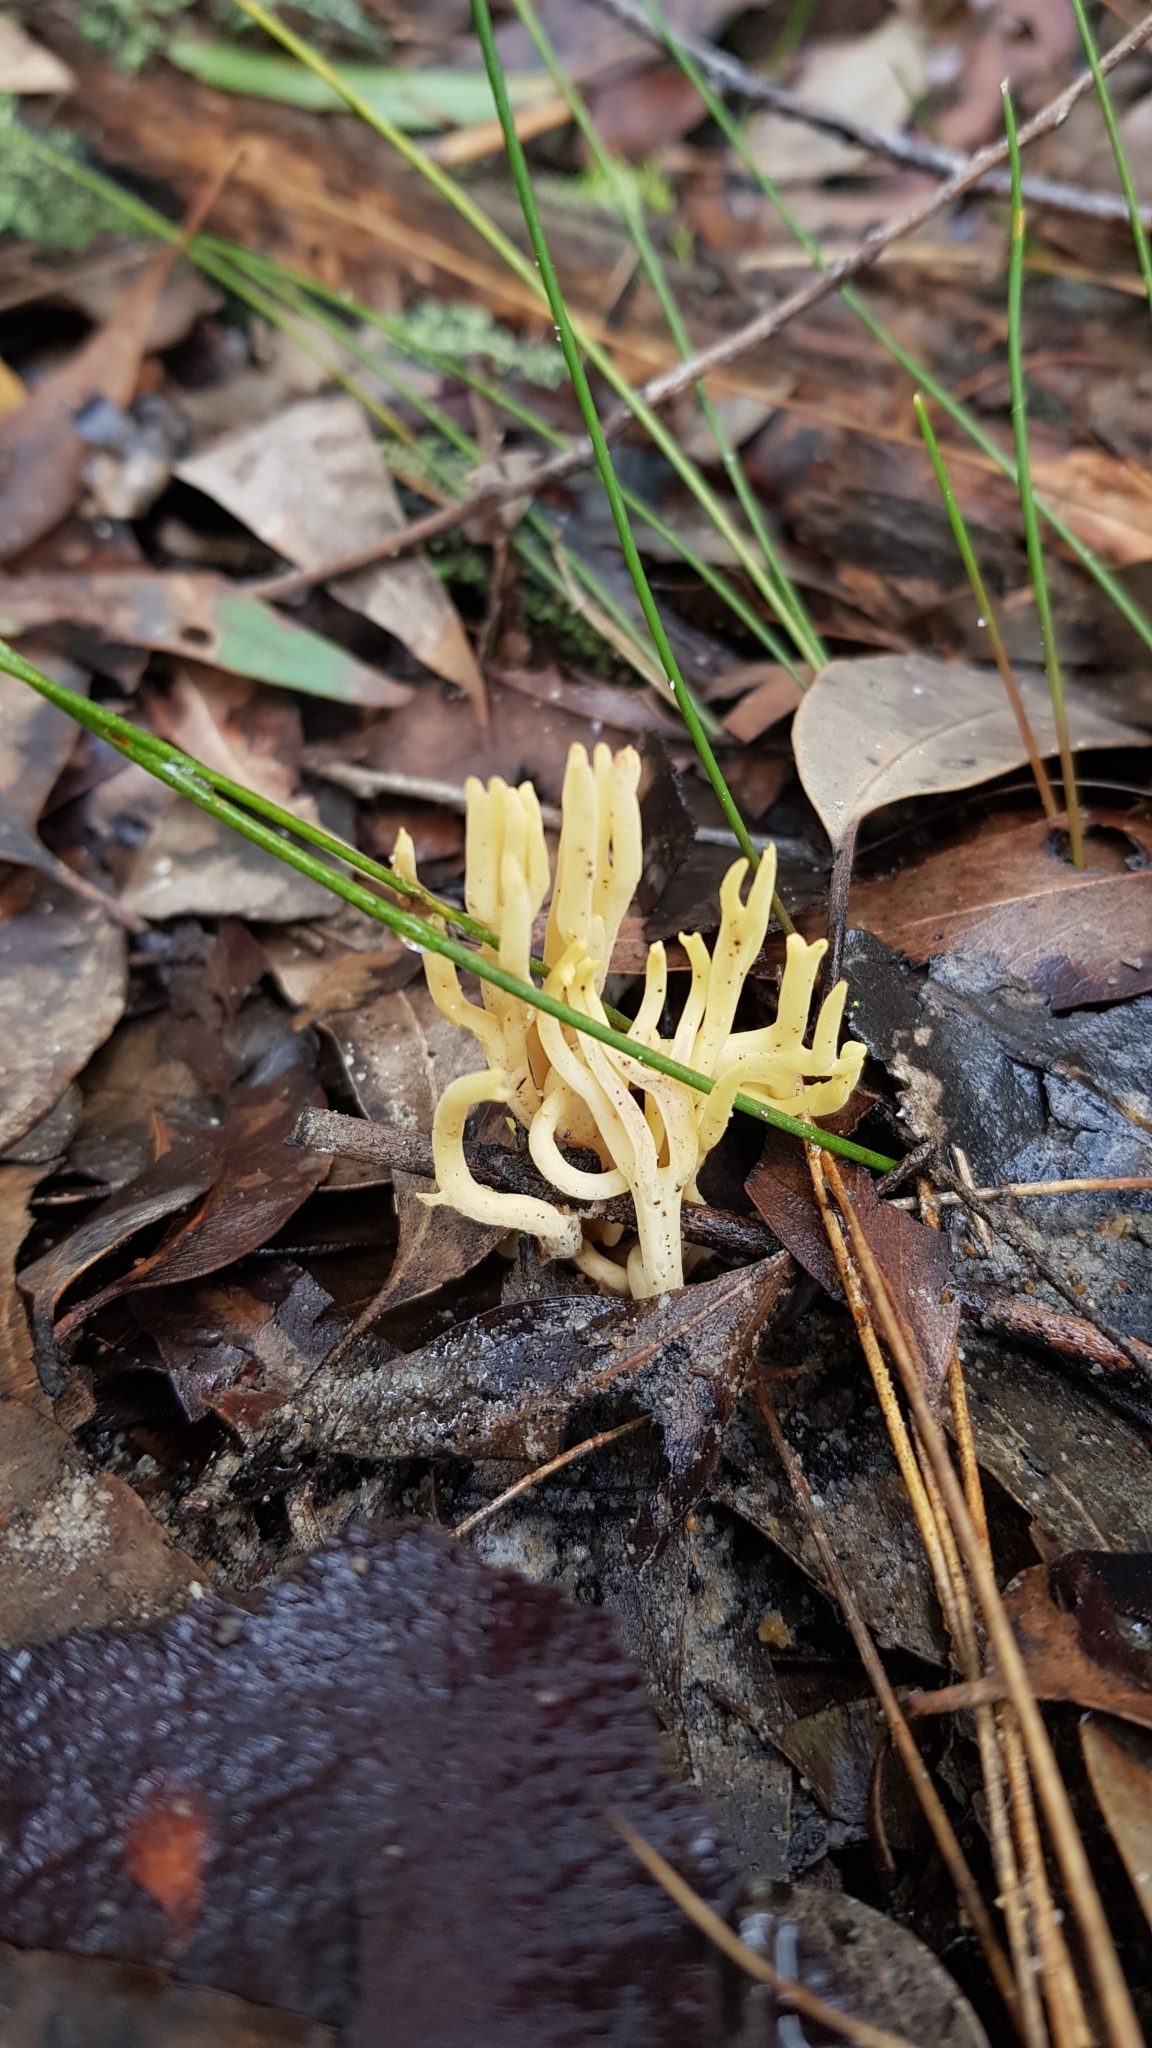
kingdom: Fungi
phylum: Basidiomycota
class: Agaricomycetes
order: Gomphales
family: Gomphaceae
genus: Ramaria
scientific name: Ramaria lorithamnus
